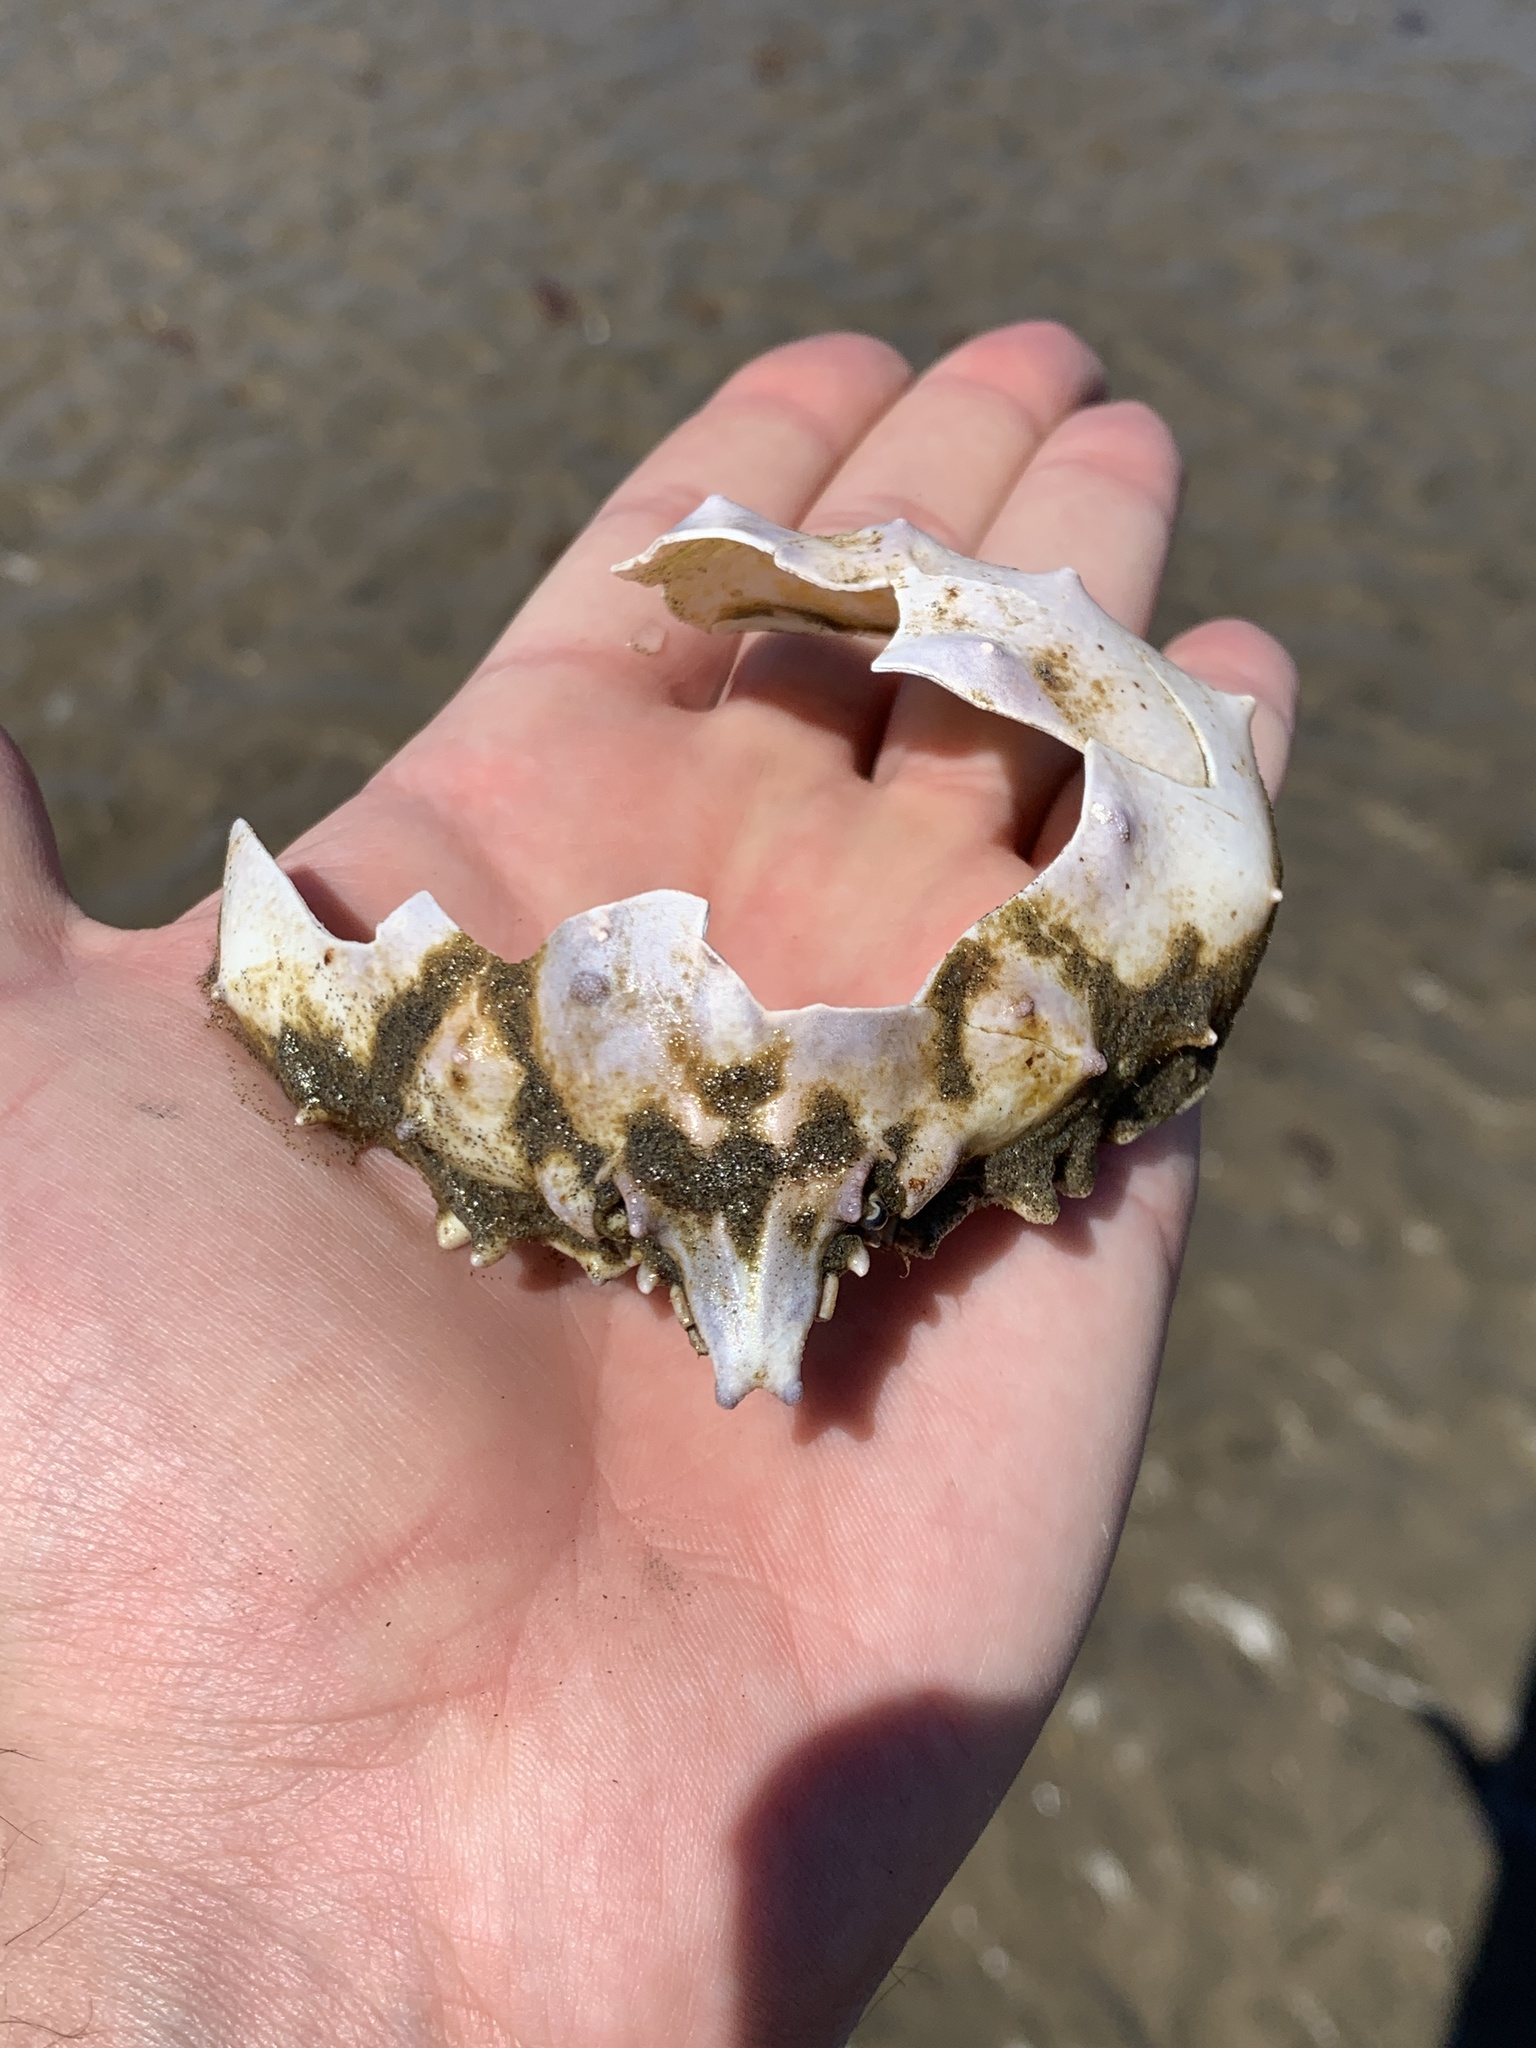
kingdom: Animalia
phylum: Arthropoda
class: Malacostraca
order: Decapoda
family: Epialtidae
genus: Libinia
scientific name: Libinia spinosa
